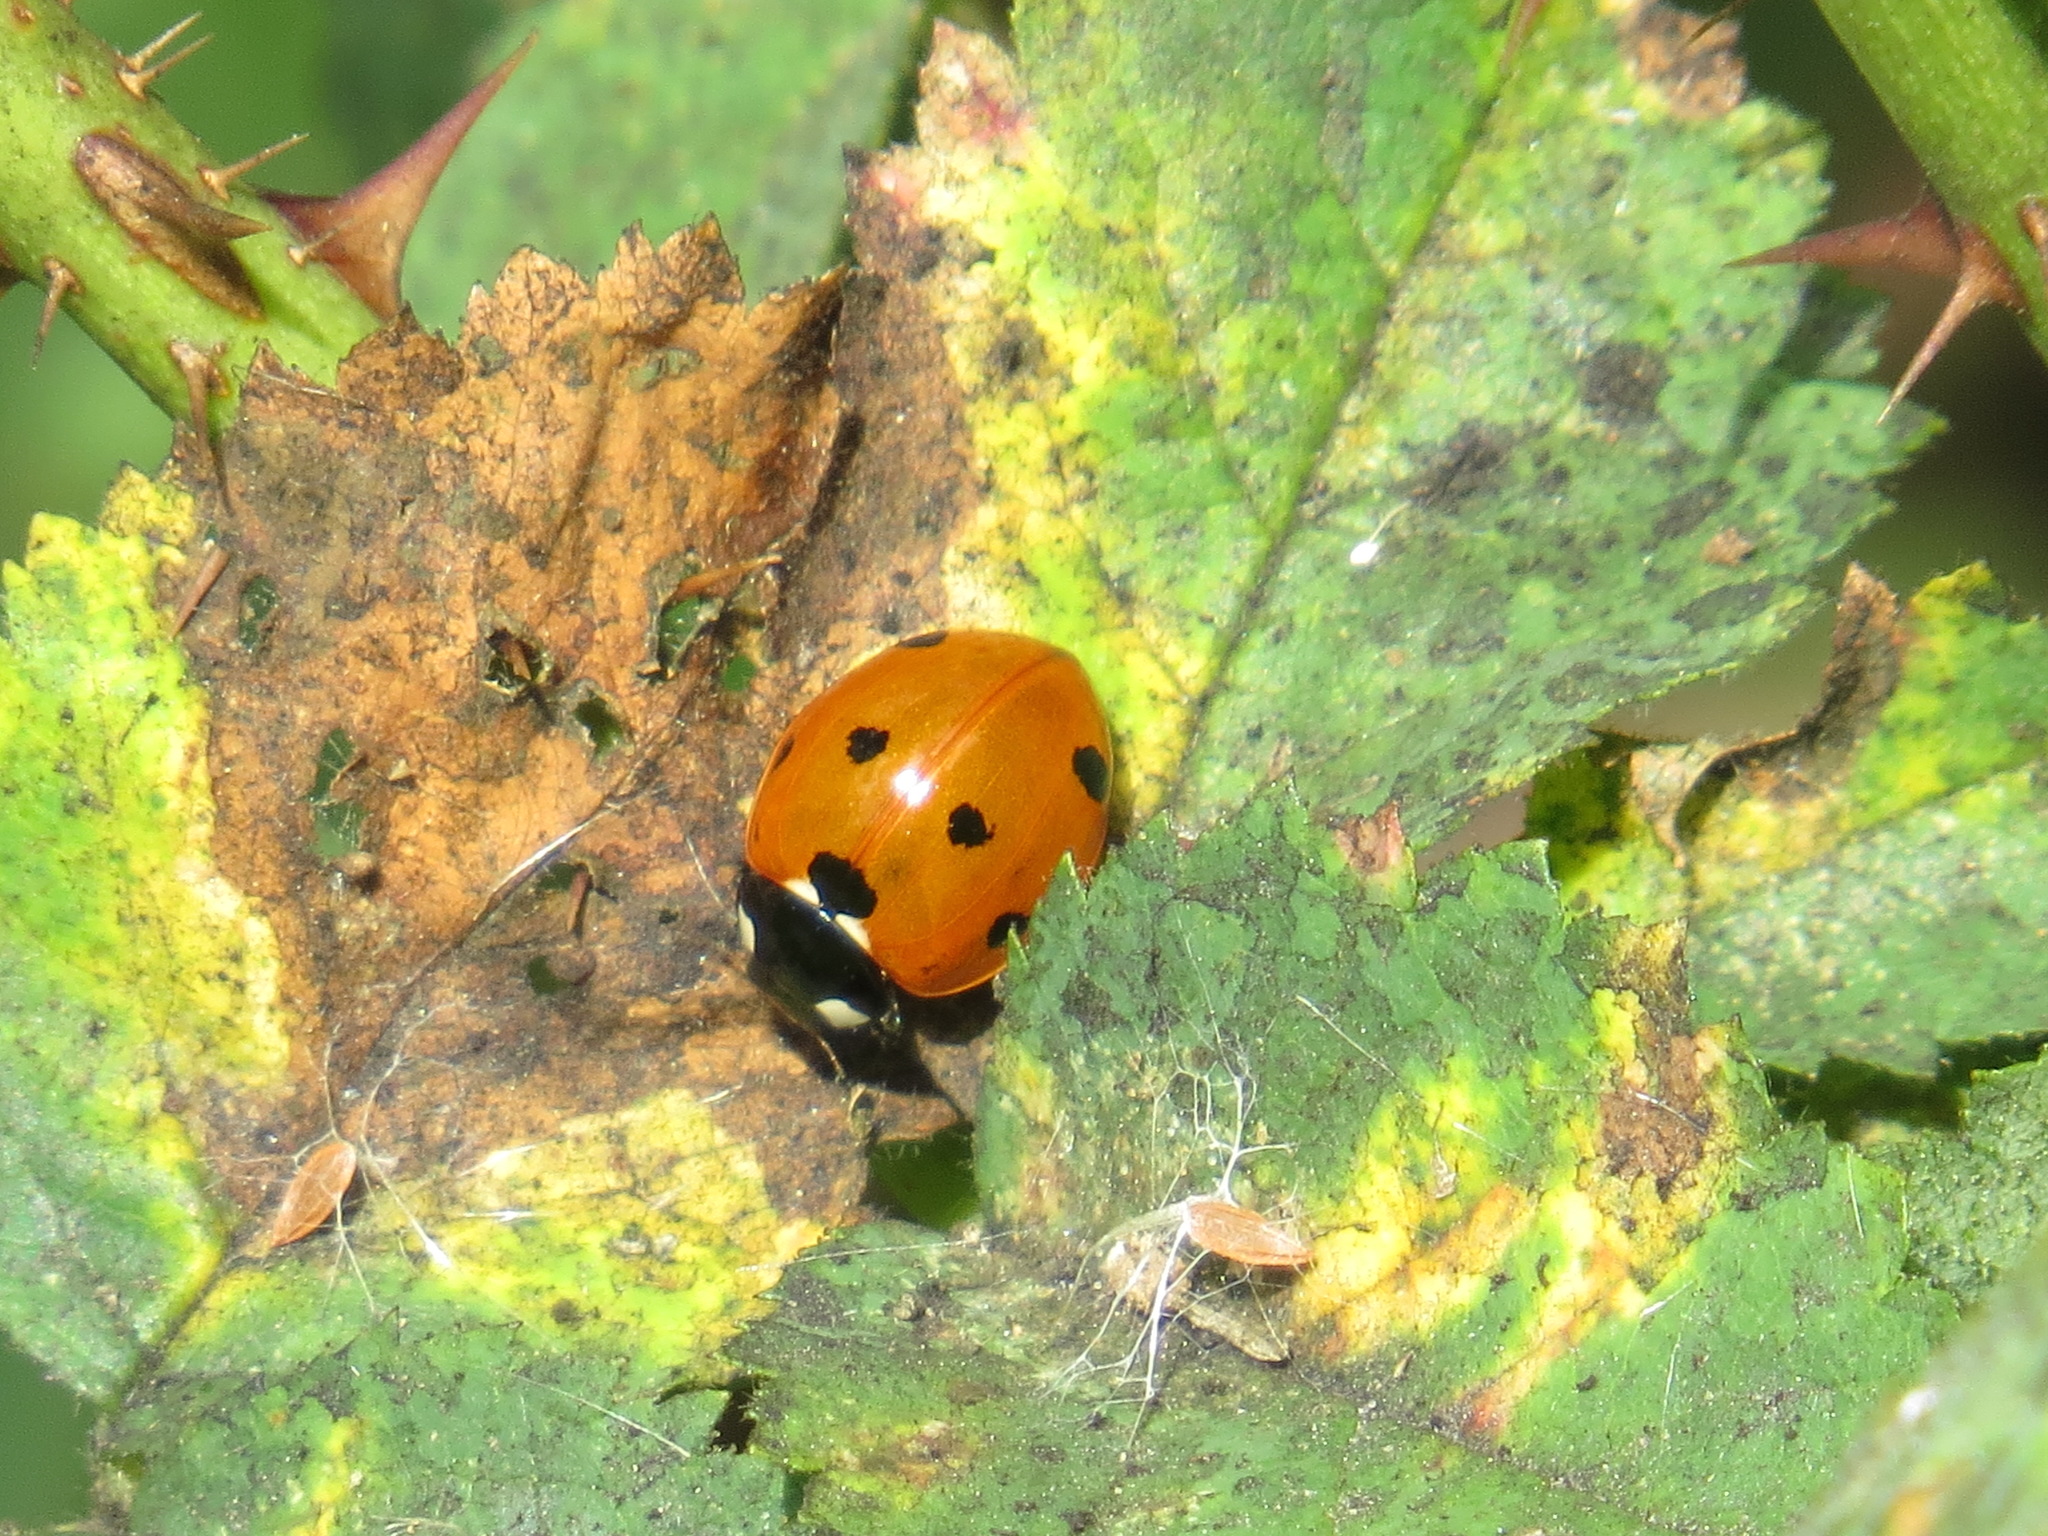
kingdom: Animalia
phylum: Arthropoda
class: Insecta
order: Coleoptera
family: Coccinellidae
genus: Coccinella
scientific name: Coccinella septempunctata
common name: Sevenspotted lady beetle
